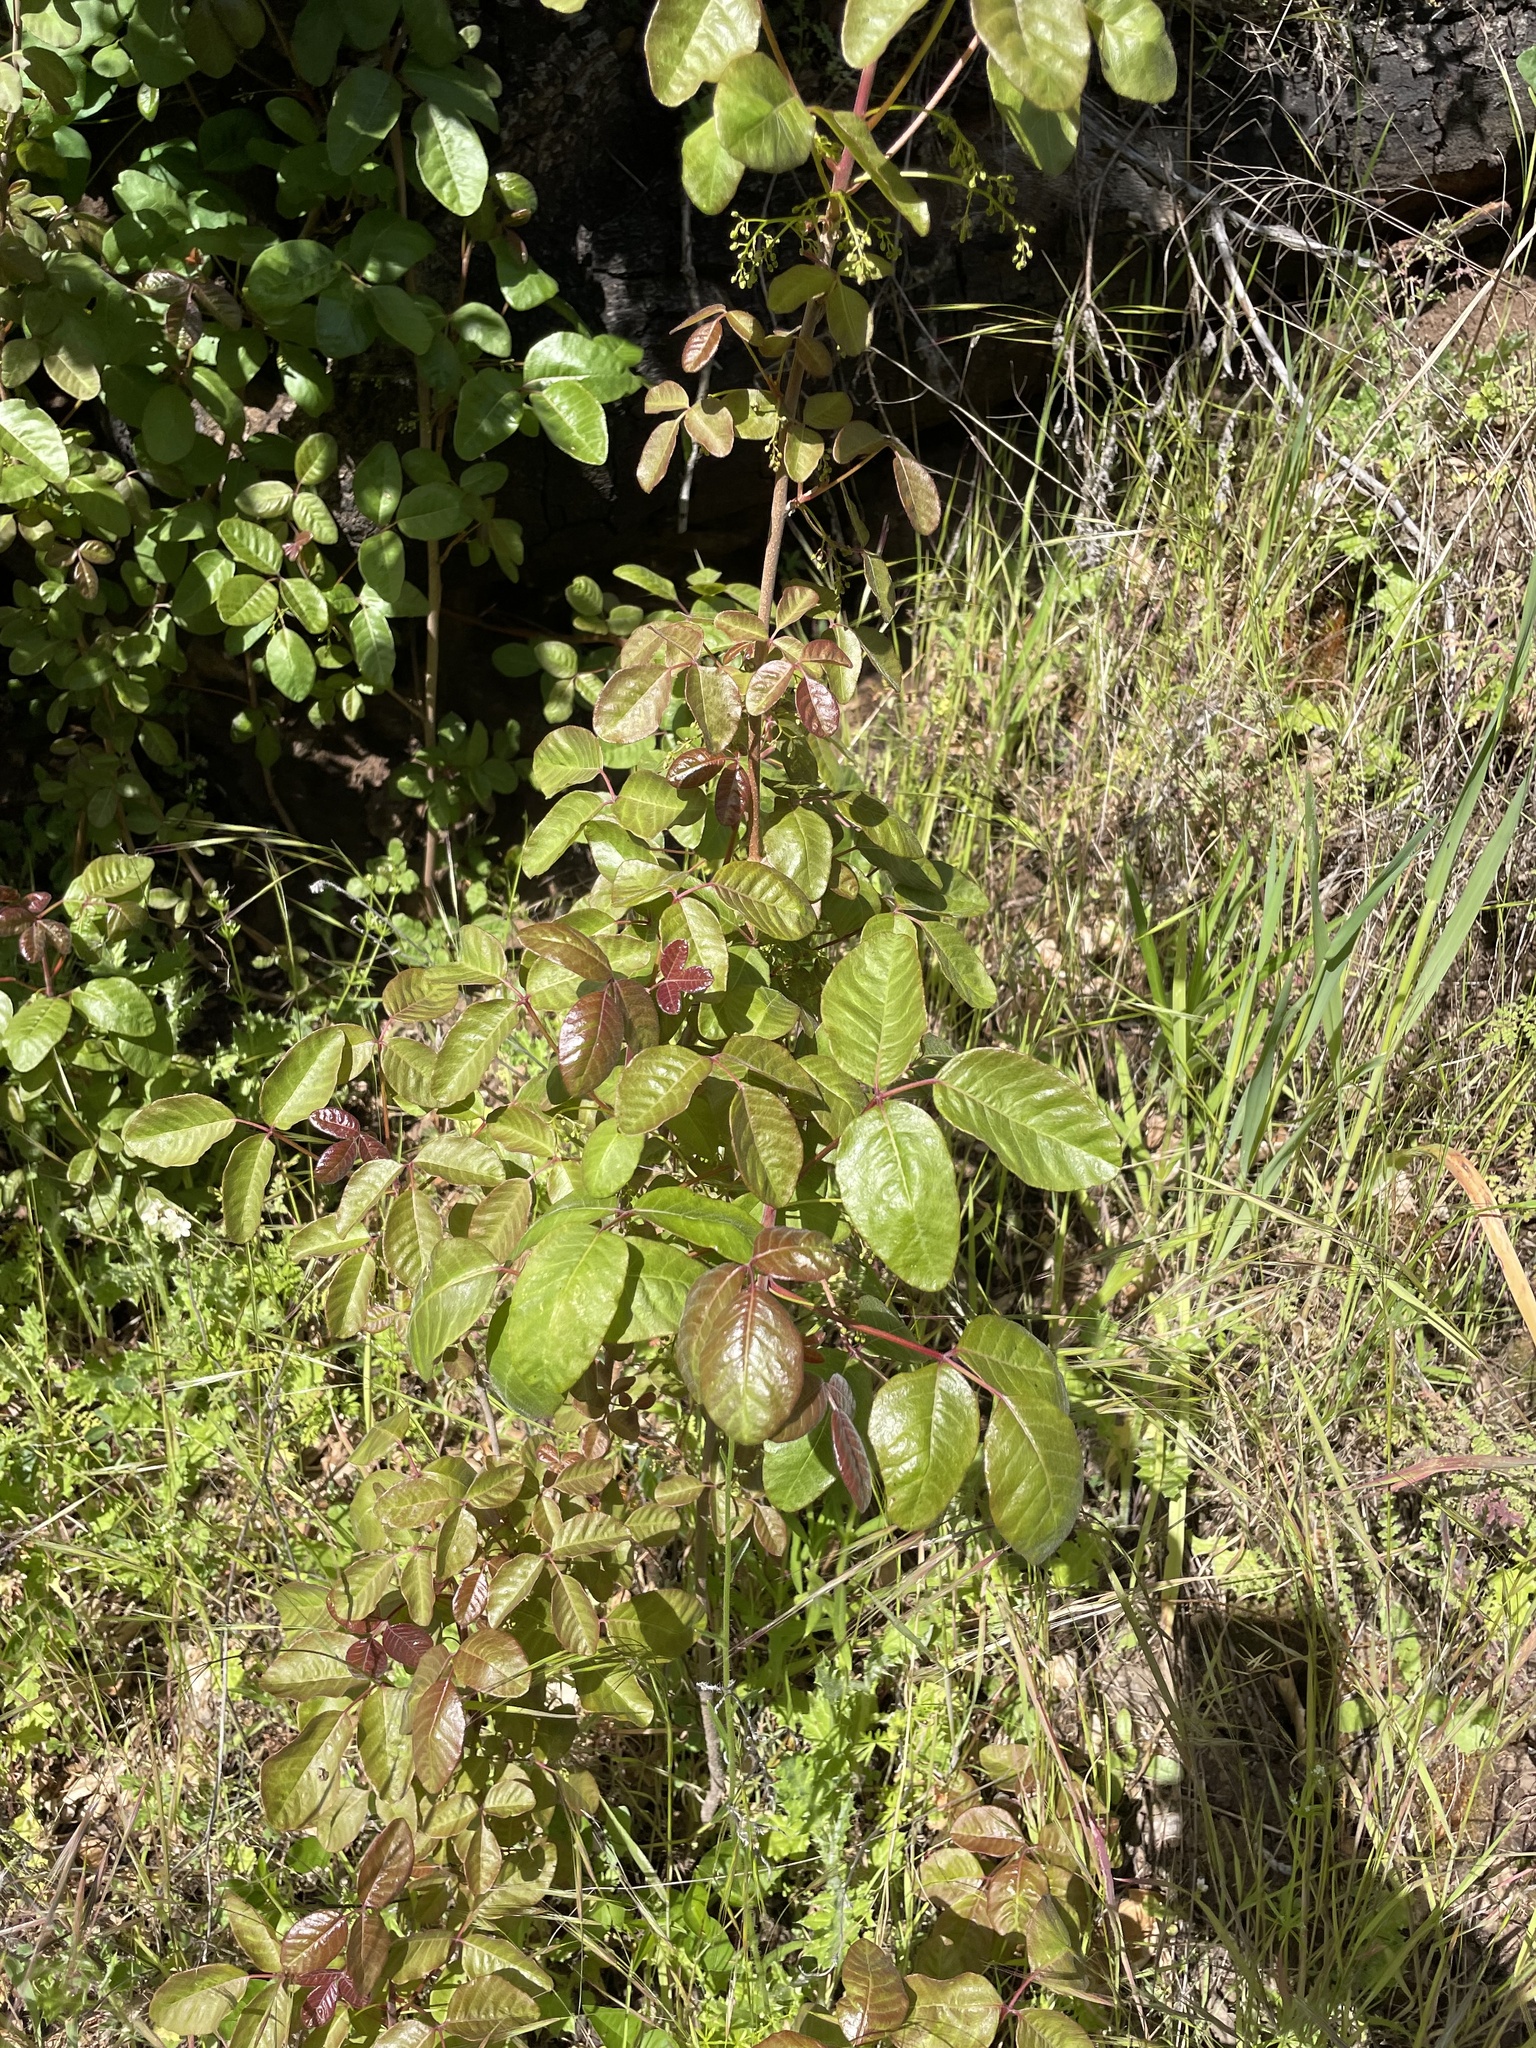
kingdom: Plantae
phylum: Tracheophyta
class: Magnoliopsida
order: Sapindales
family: Anacardiaceae
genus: Toxicodendron
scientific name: Toxicodendron diversilobum
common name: Pacific poison-oak
